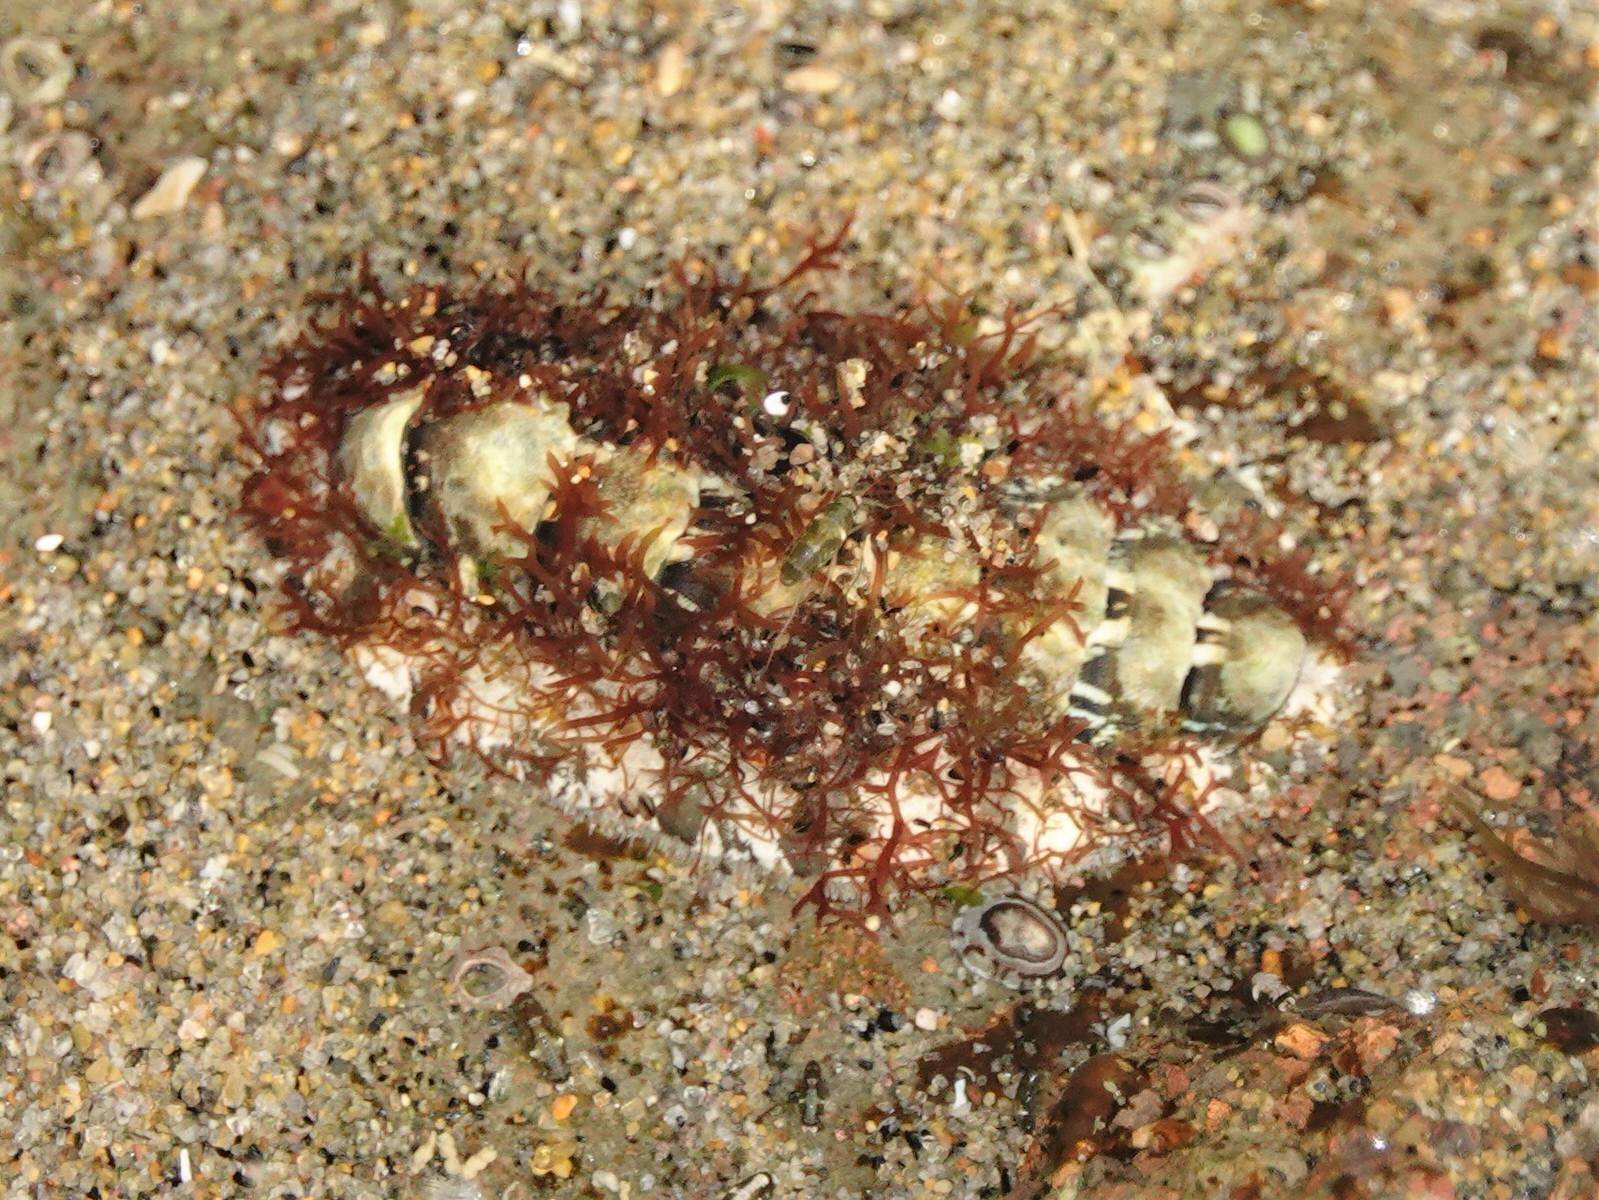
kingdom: Animalia
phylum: Mollusca
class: Polyplacophora
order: Chitonida
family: Mopaliidae
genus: Plaxiphora
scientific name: Plaxiphora caelata
